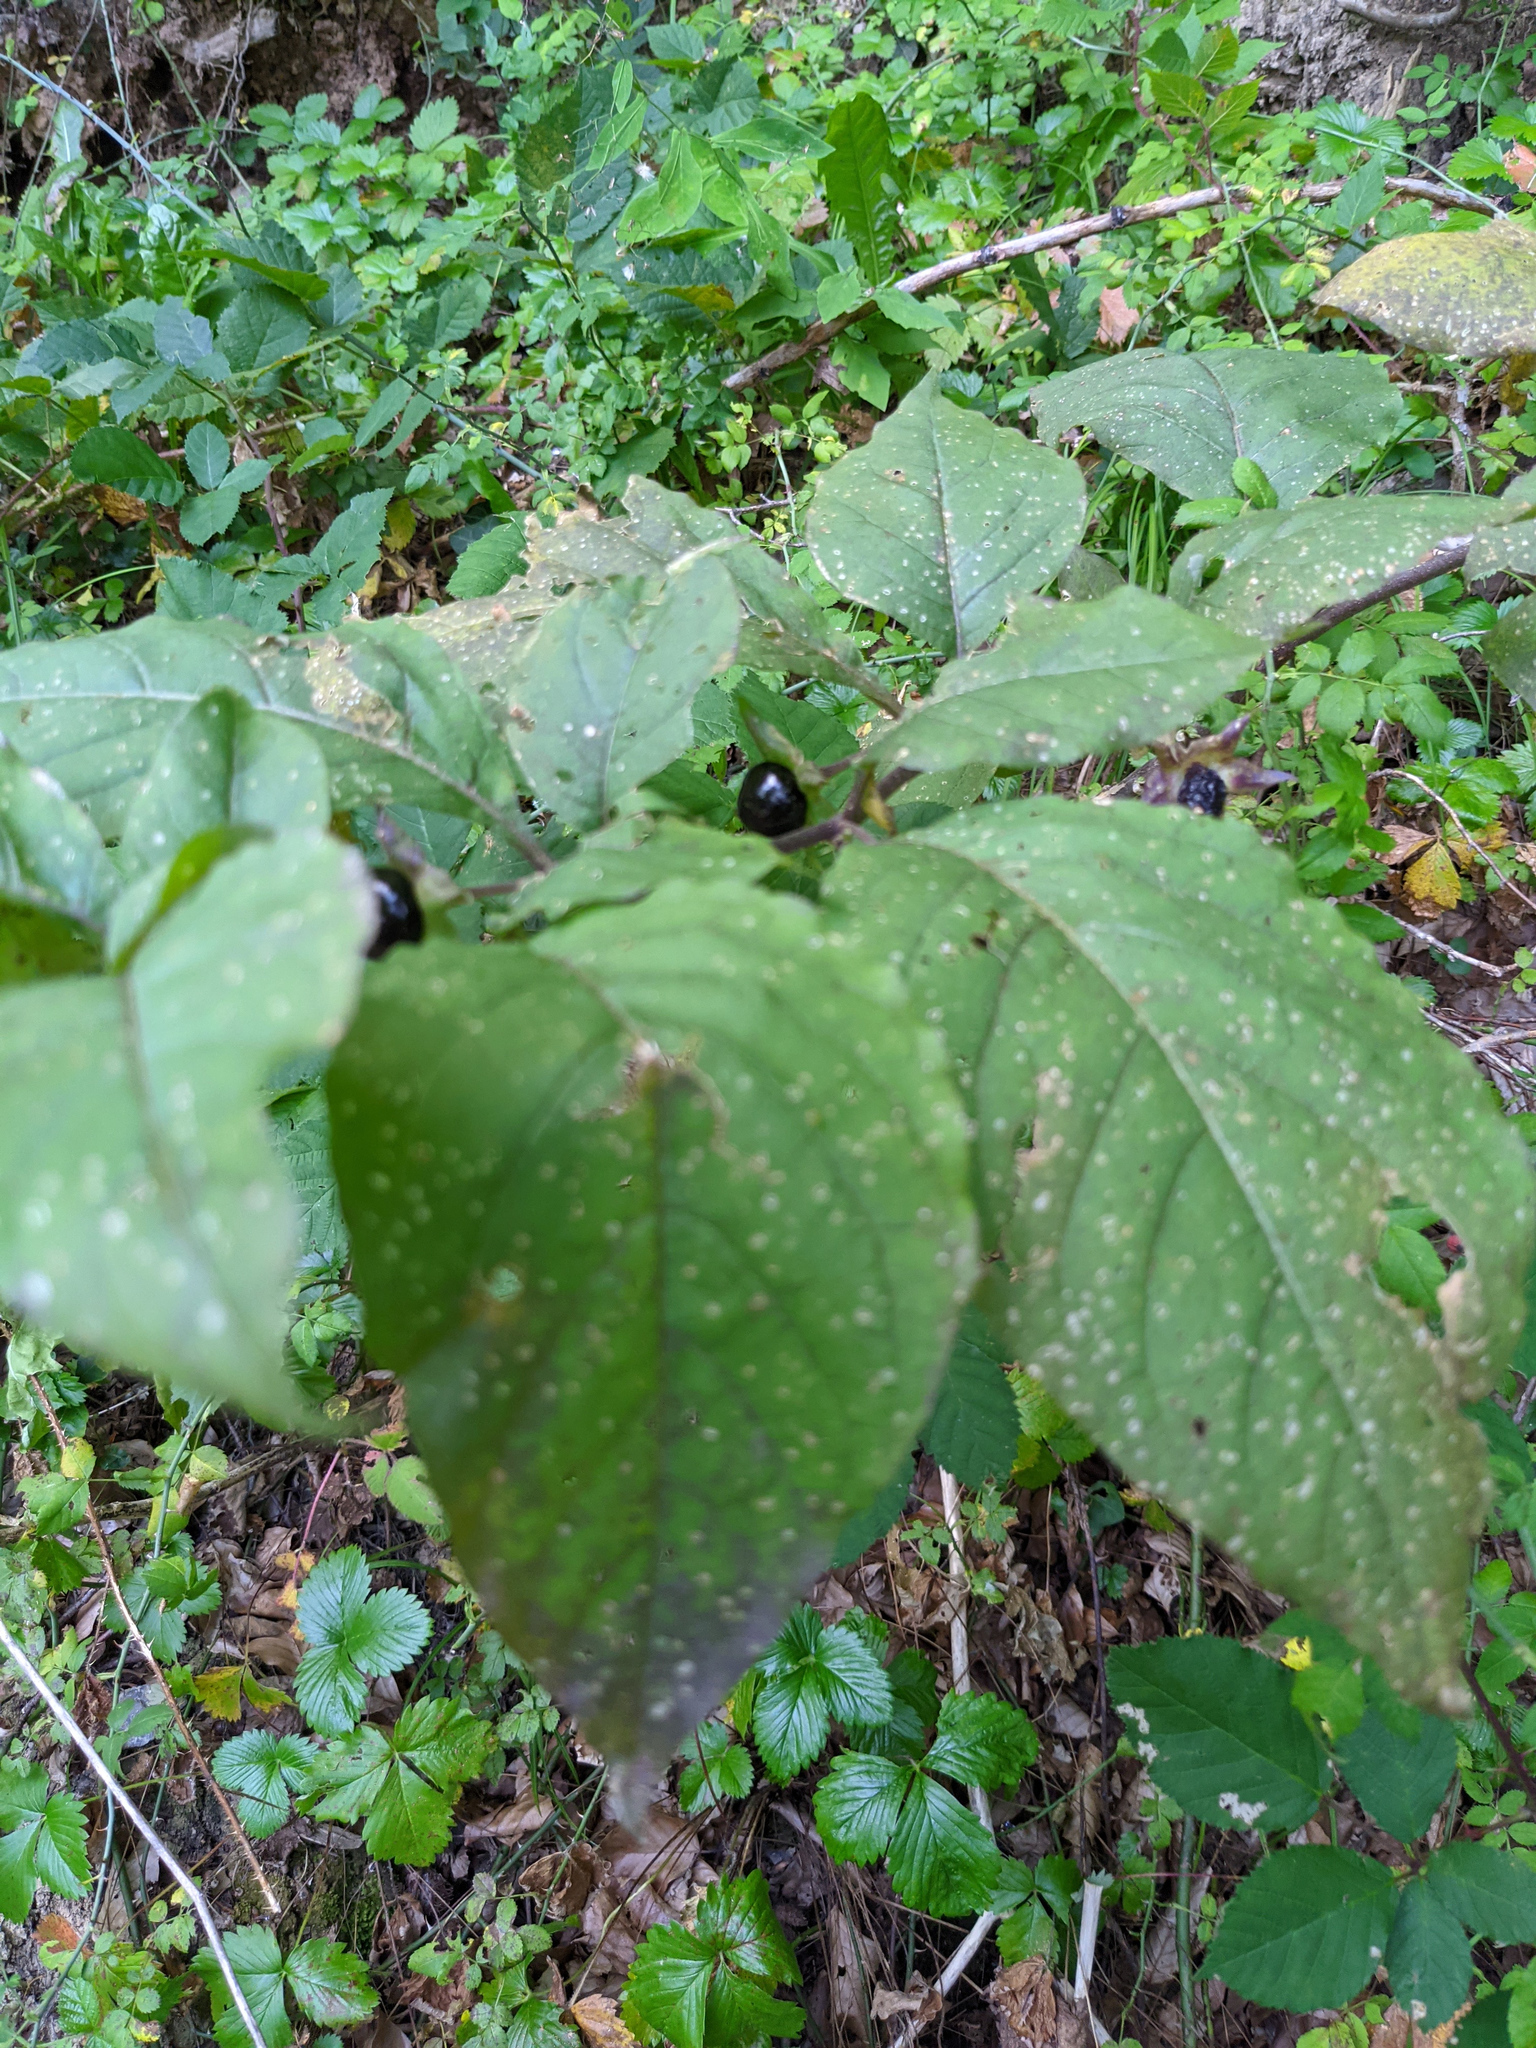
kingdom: Plantae
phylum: Tracheophyta
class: Magnoliopsida
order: Solanales
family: Solanaceae
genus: Atropa
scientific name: Atropa belladonna
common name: Deadly nightshade
